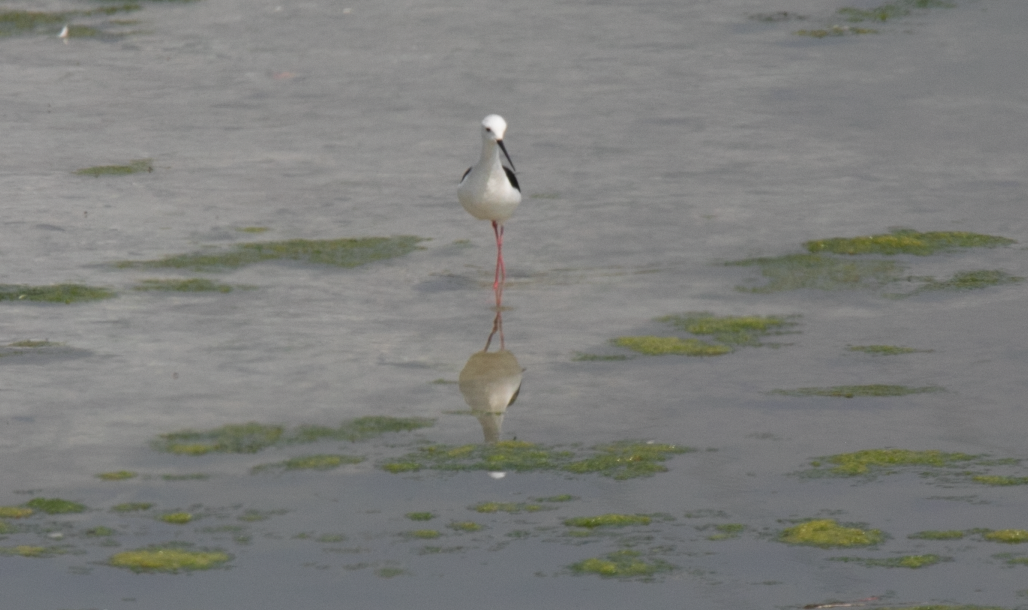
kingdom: Animalia
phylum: Chordata
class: Aves
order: Charadriiformes
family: Recurvirostridae
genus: Himantopus
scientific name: Himantopus himantopus
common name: Black-winged stilt
